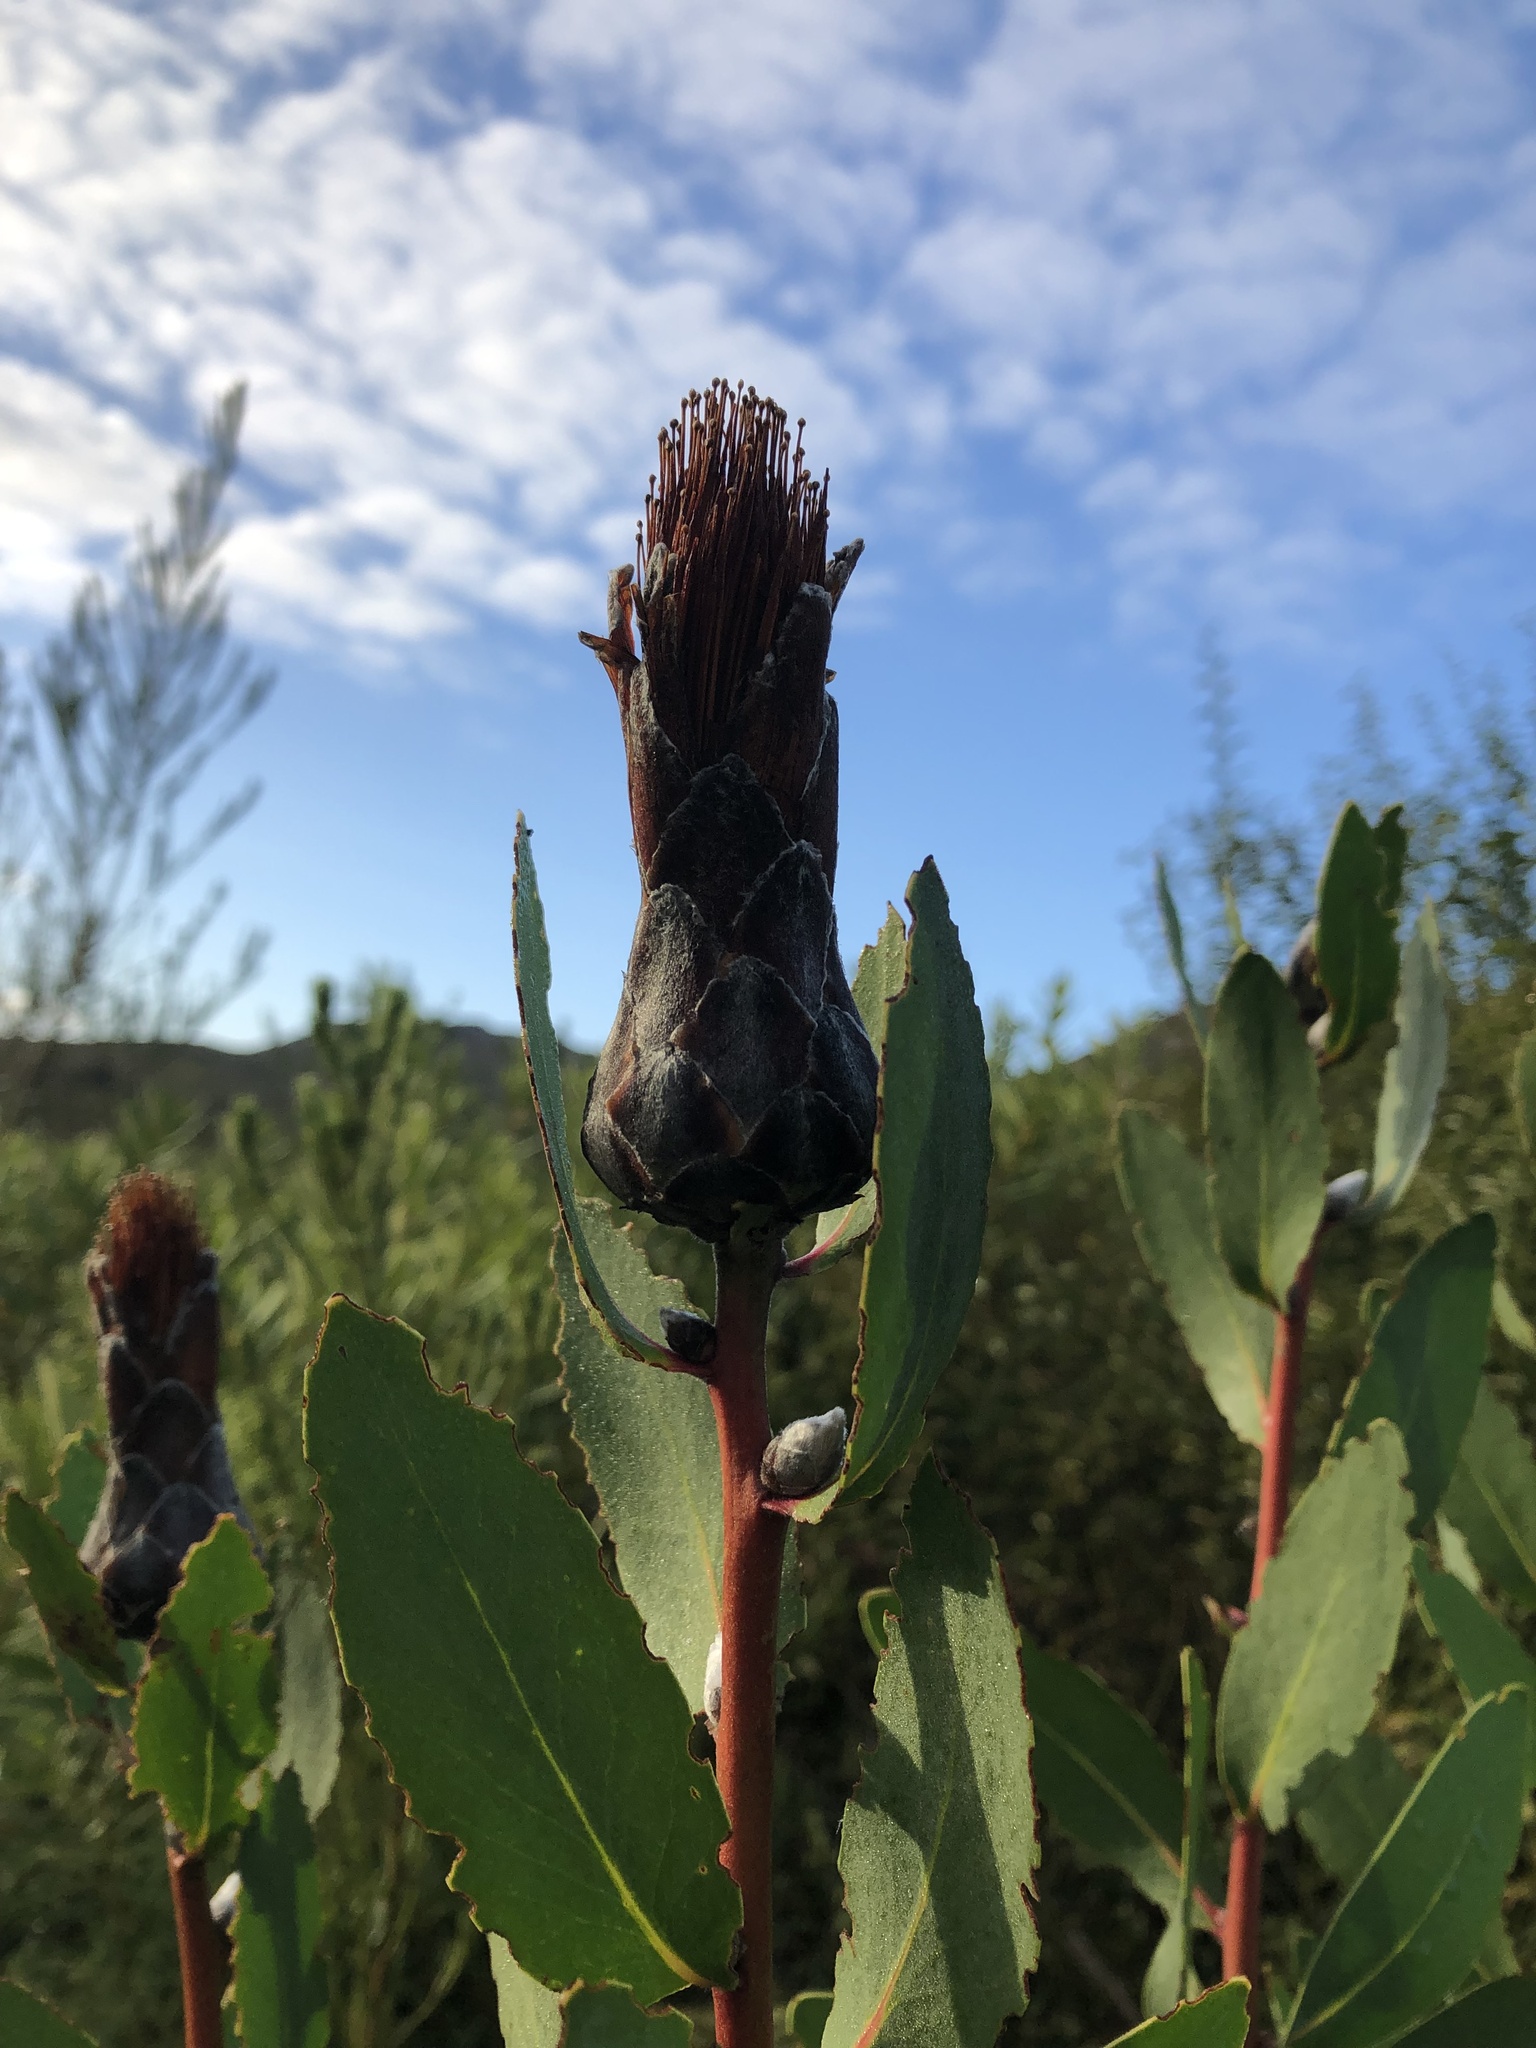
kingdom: Plantae
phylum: Tracheophyta
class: Magnoliopsida
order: Proteales
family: Proteaceae
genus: Protea
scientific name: Protea mundii
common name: Forest sugarbush
